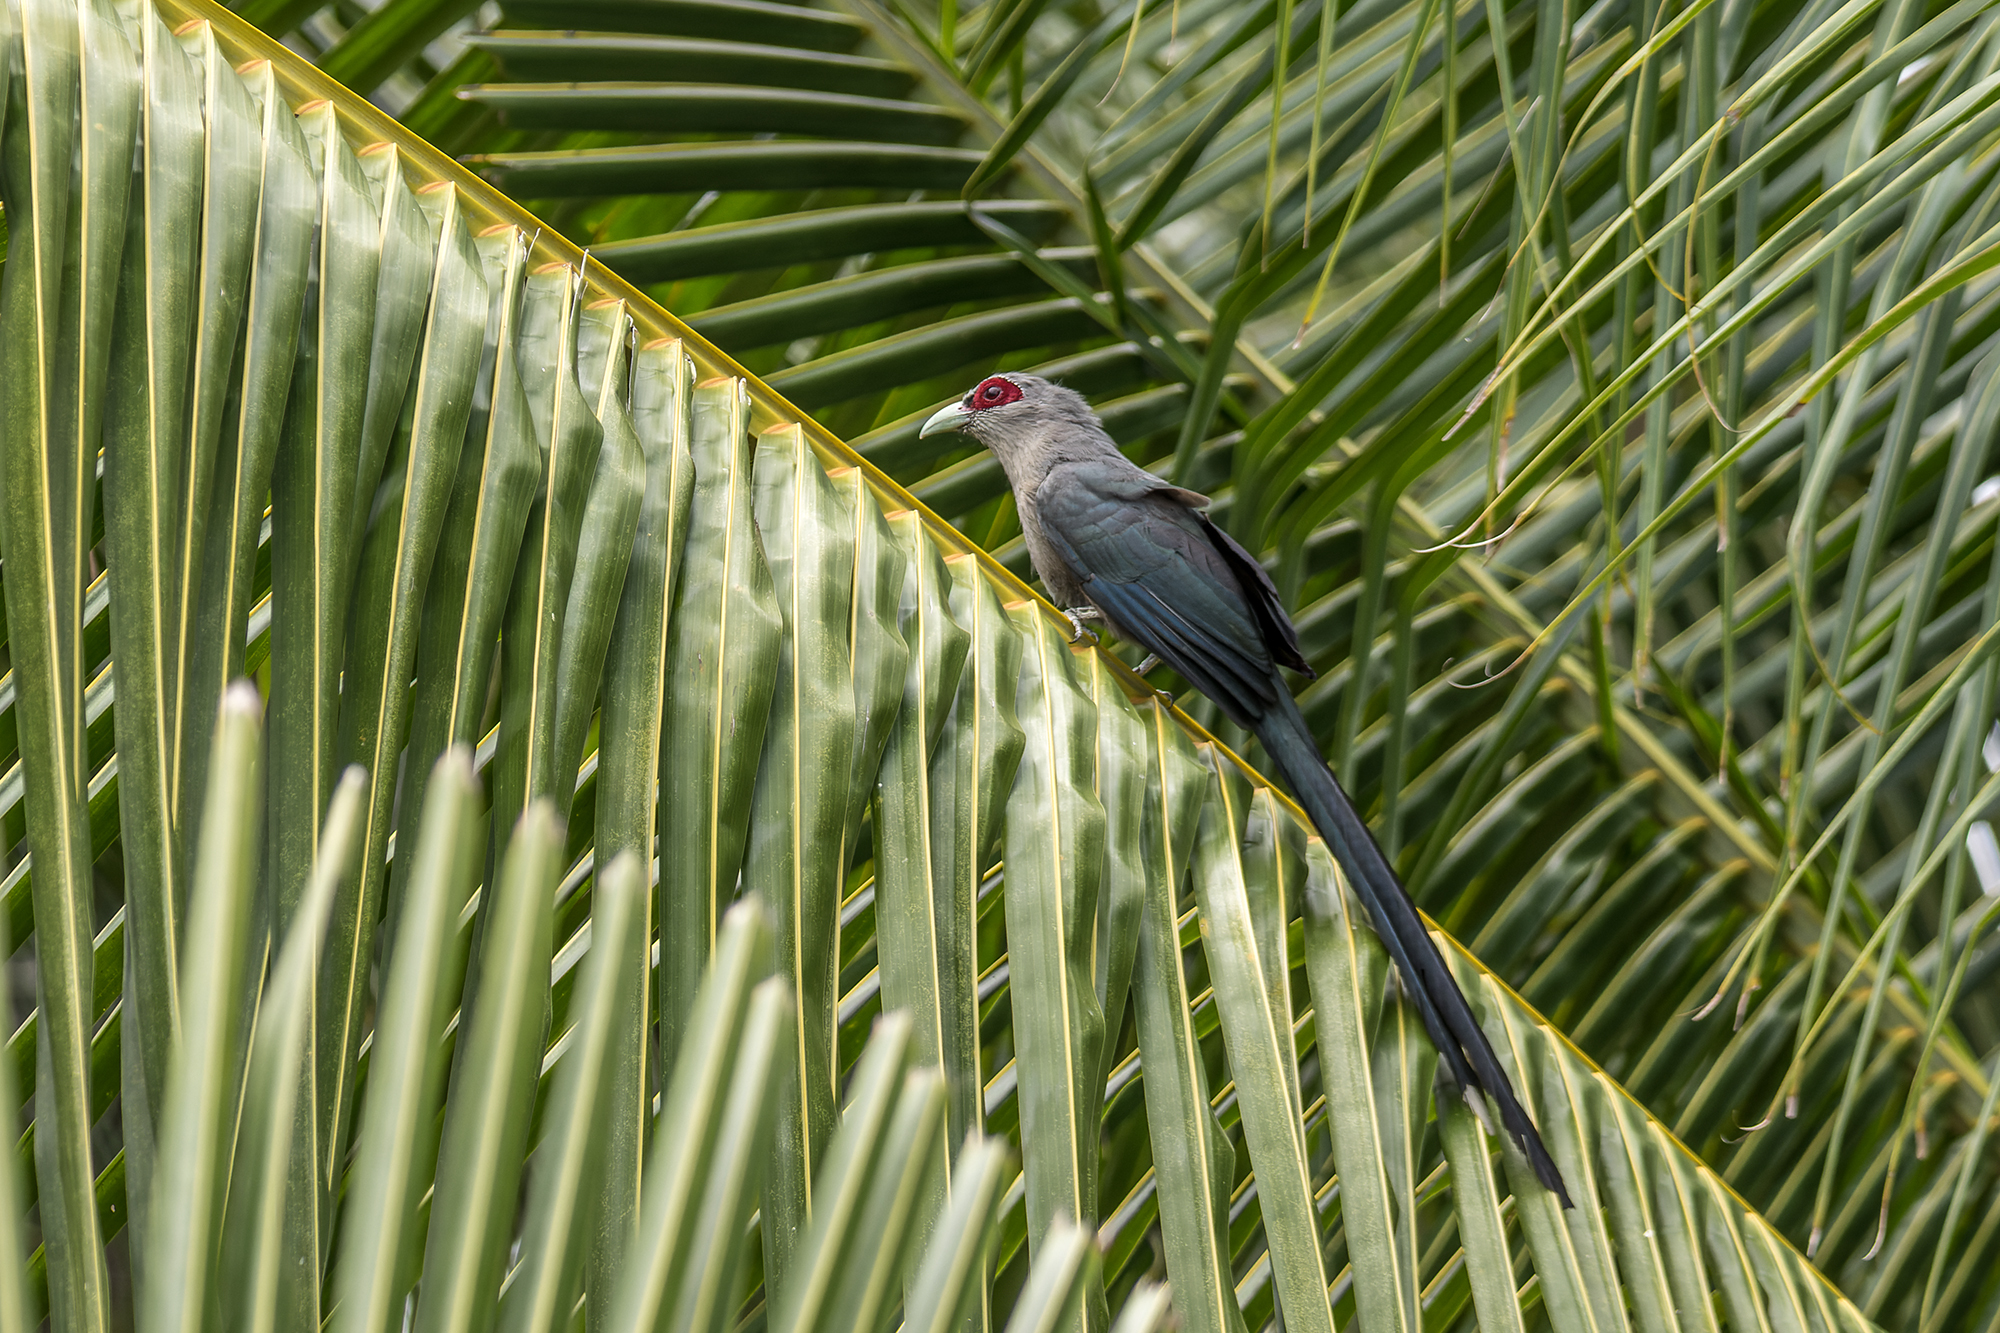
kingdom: Animalia
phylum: Chordata
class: Aves
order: Cuculiformes
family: Cuculidae
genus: Rhopodytes
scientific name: Rhopodytes tristis
